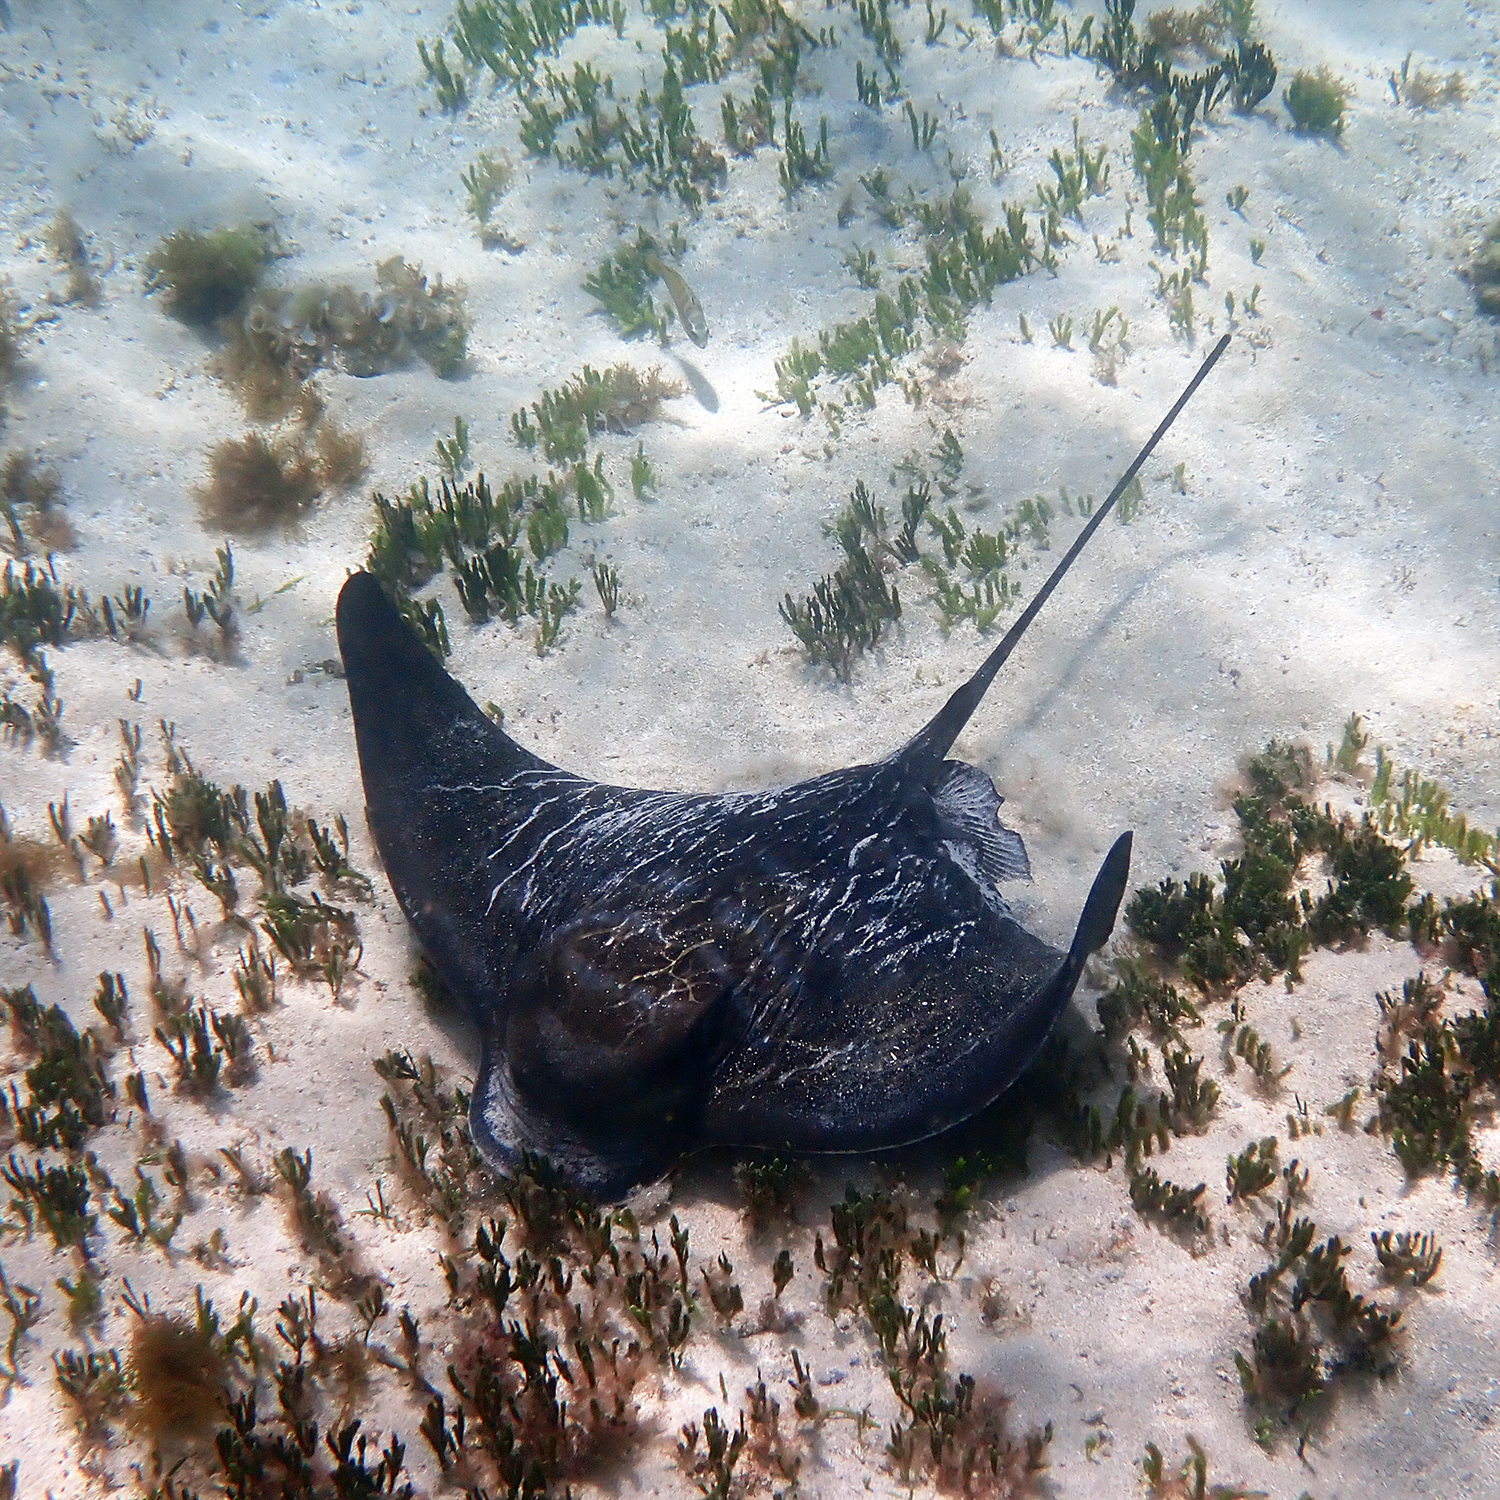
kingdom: Animalia
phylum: Chordata
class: Elasmobranchii
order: Myliobatiformes
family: Myliobatidae
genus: Myliobatis
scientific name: Myliobatis tenuicaudatus
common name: Eagle ray
